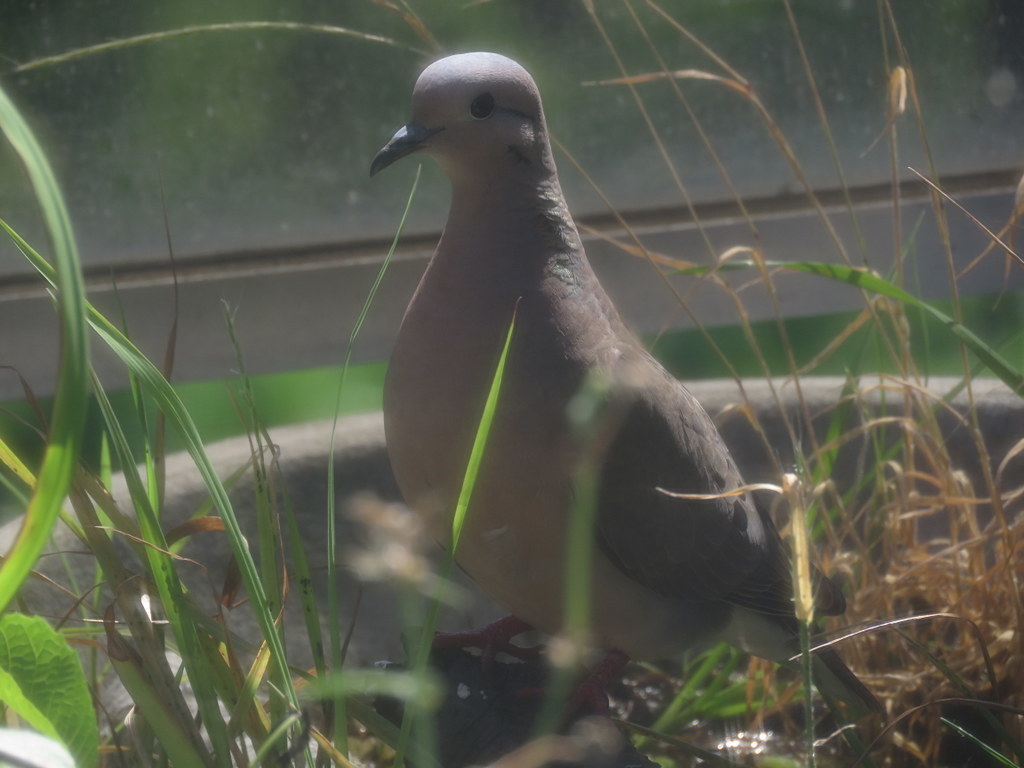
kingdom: Animalia
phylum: Chordata
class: Aves
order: Columbiformes
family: Columbidae
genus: Zenaida
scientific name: Zenaida auriculata
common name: Eared dove
